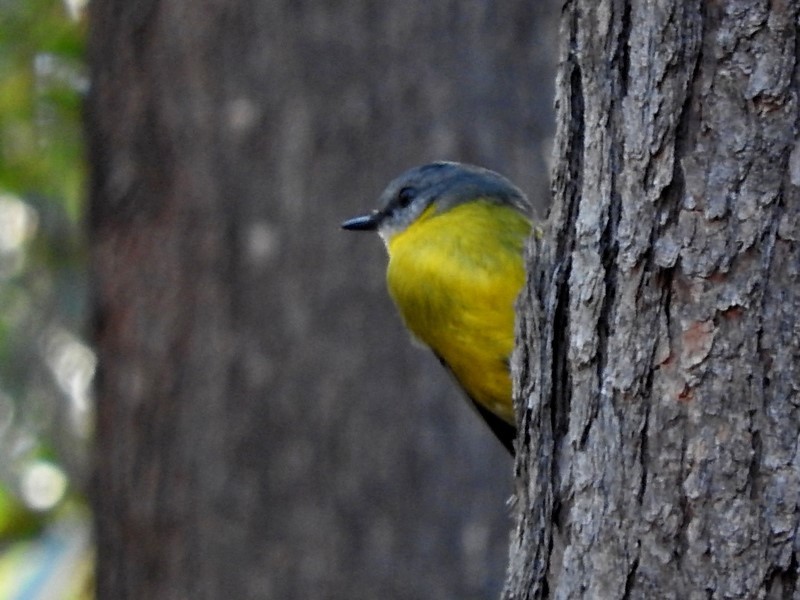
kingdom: Animalia
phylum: Chordata
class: Aves
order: Passeriformes
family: Petroicidae
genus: Eopsaltria
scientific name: Eopsaltria australis
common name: Eastern yellow robin
